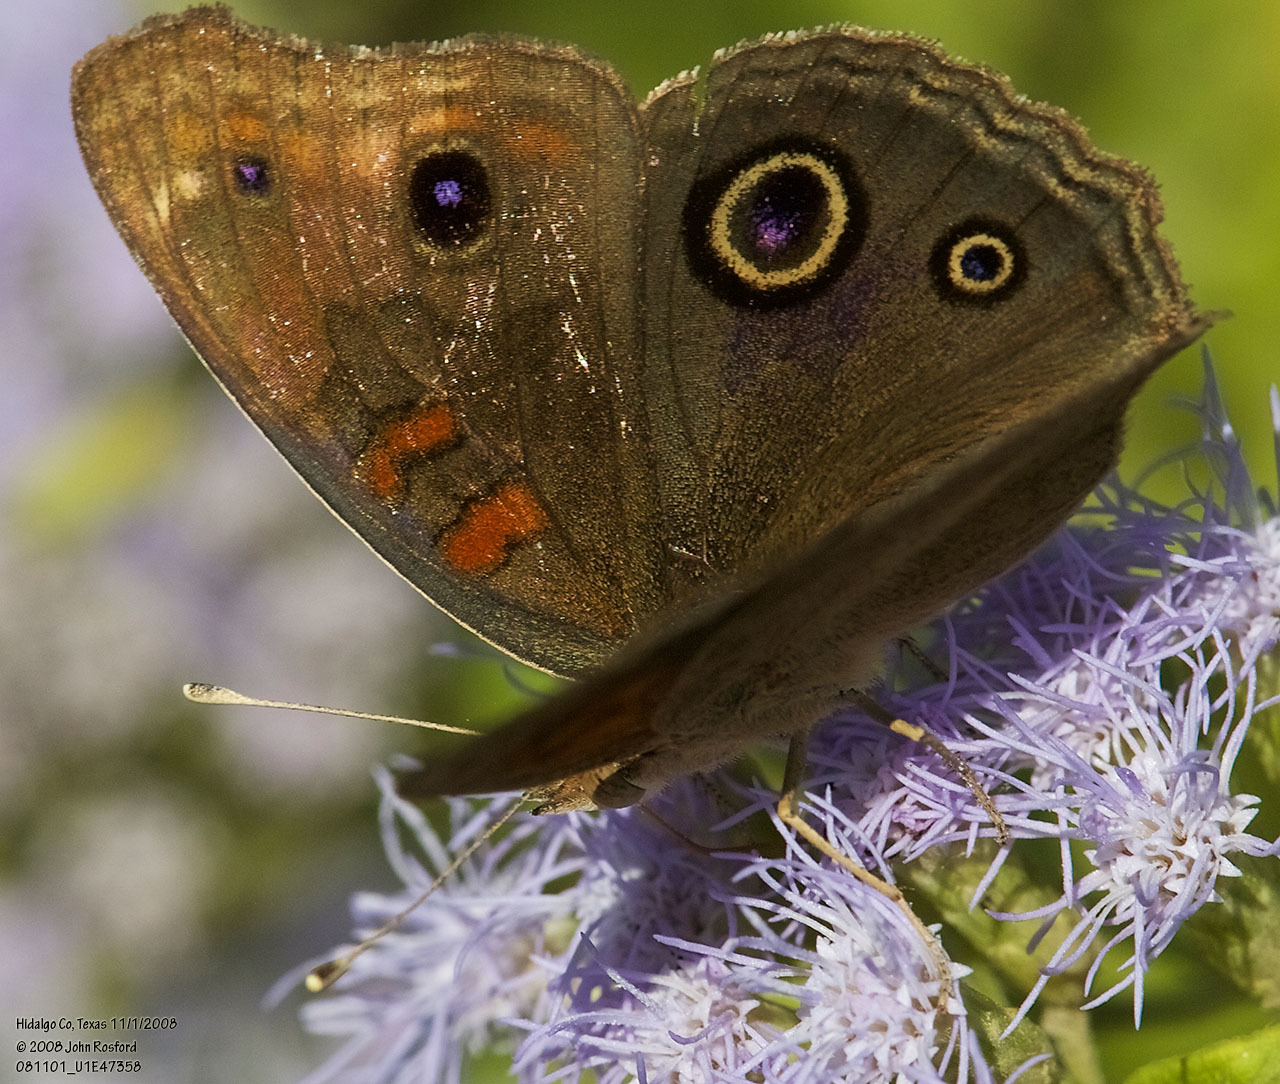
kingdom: Animalia
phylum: Arthropoda
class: Insecta
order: Lepidoptera
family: Nymphalidae
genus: Junonia
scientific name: Junonia stemosa
